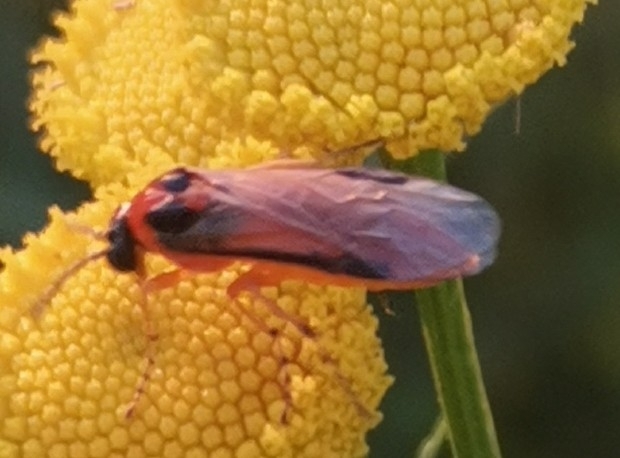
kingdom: Animalia
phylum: Arthropoda
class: Insecta
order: Hymenoptera
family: Tenthredinidae
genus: Athalia
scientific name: Athalia rosae
